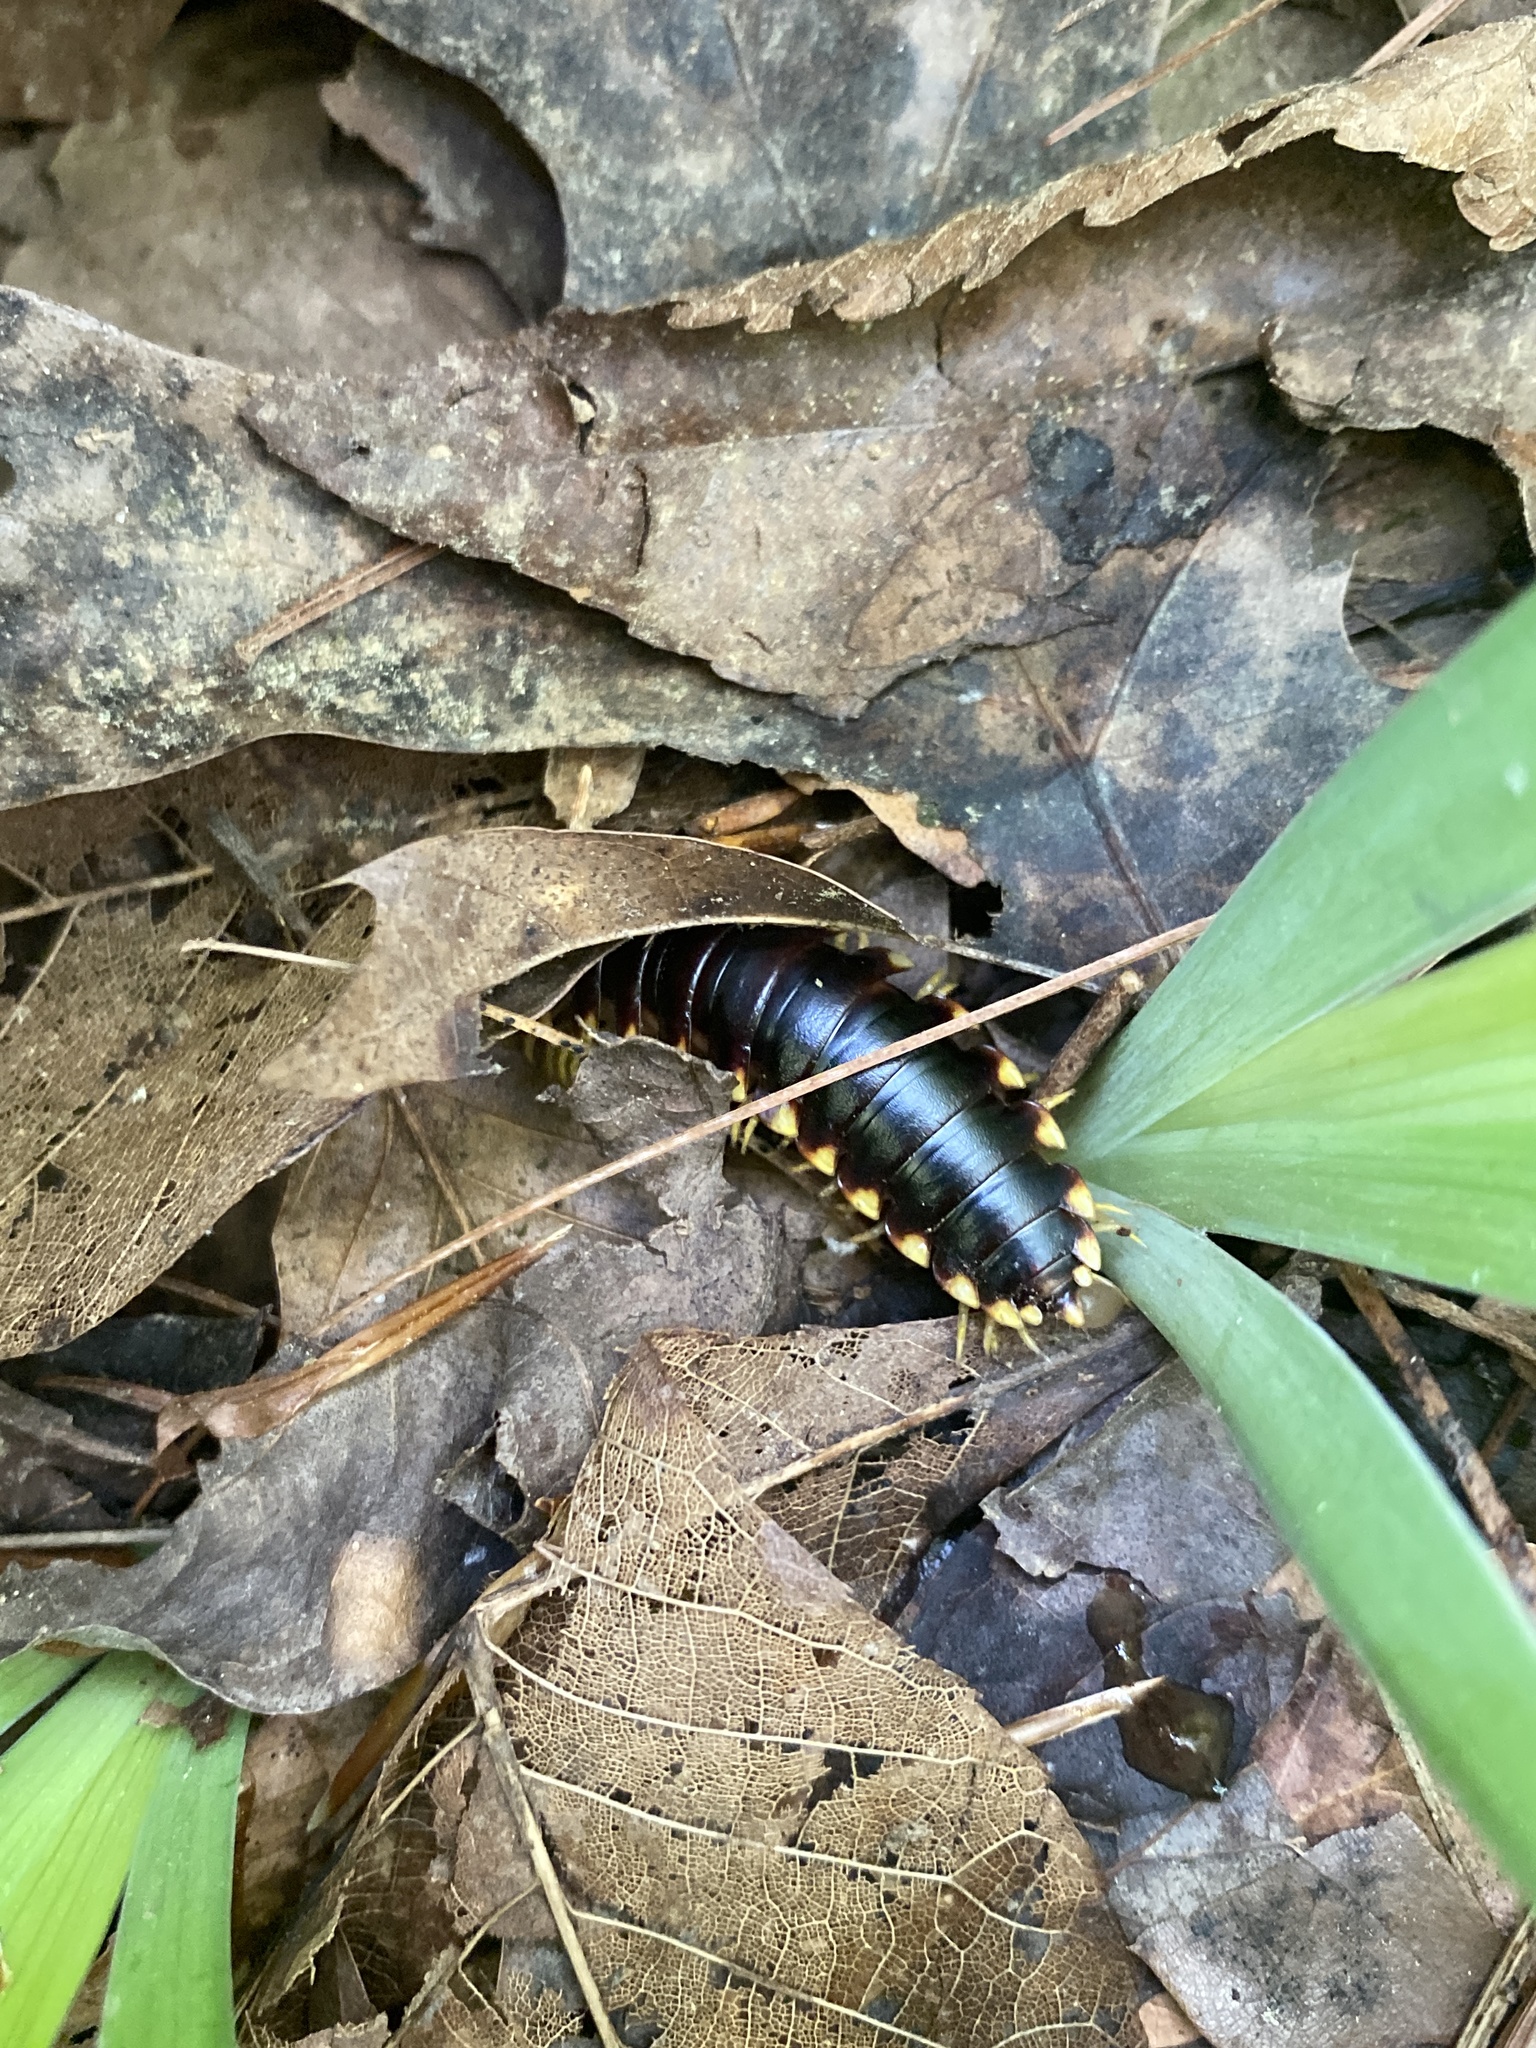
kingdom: Animalia
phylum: Arthropoda
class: Diplopoda
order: Polydesmida
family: Xystodesmidae
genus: Apheloria
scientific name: Apheloria tigana
